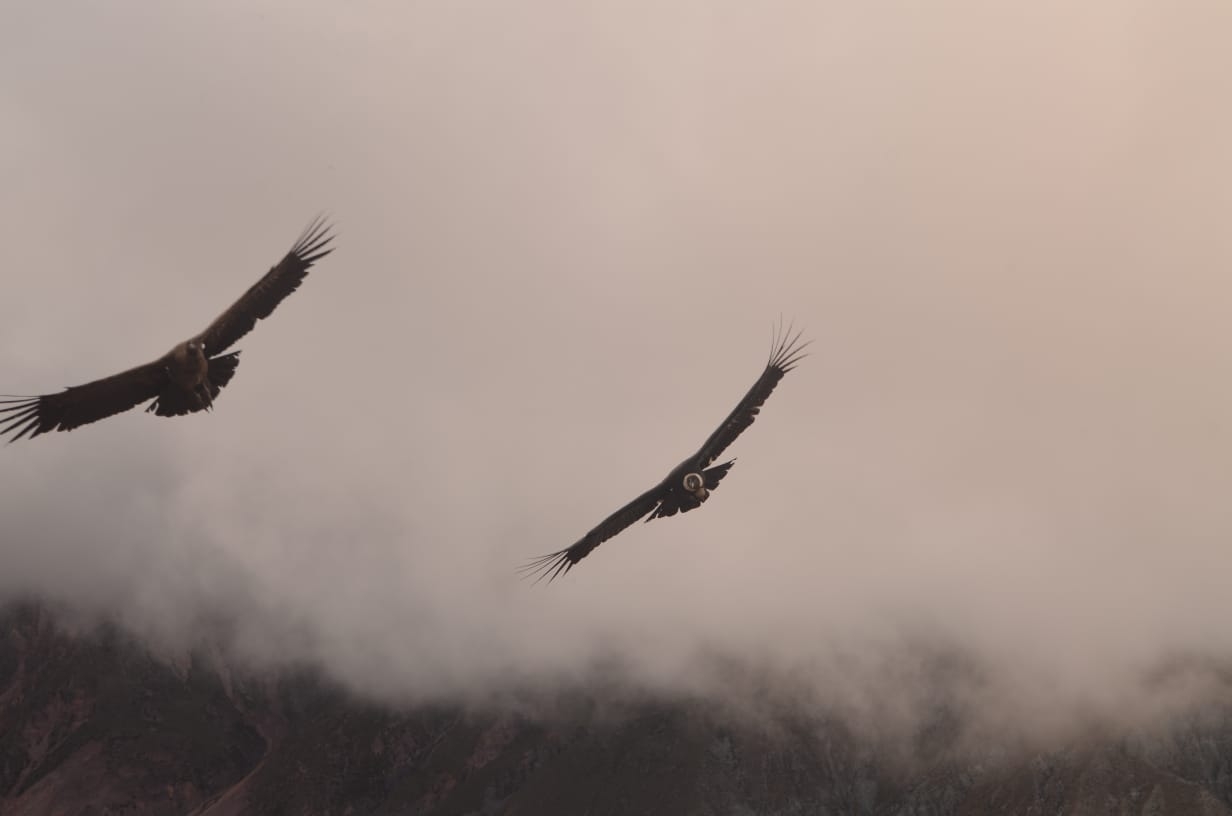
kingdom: Animalia
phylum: Chordata
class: Aves
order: Accipitriformes
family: Cathartidae
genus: Vultur
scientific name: Vultur gryphus
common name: Andean condor
